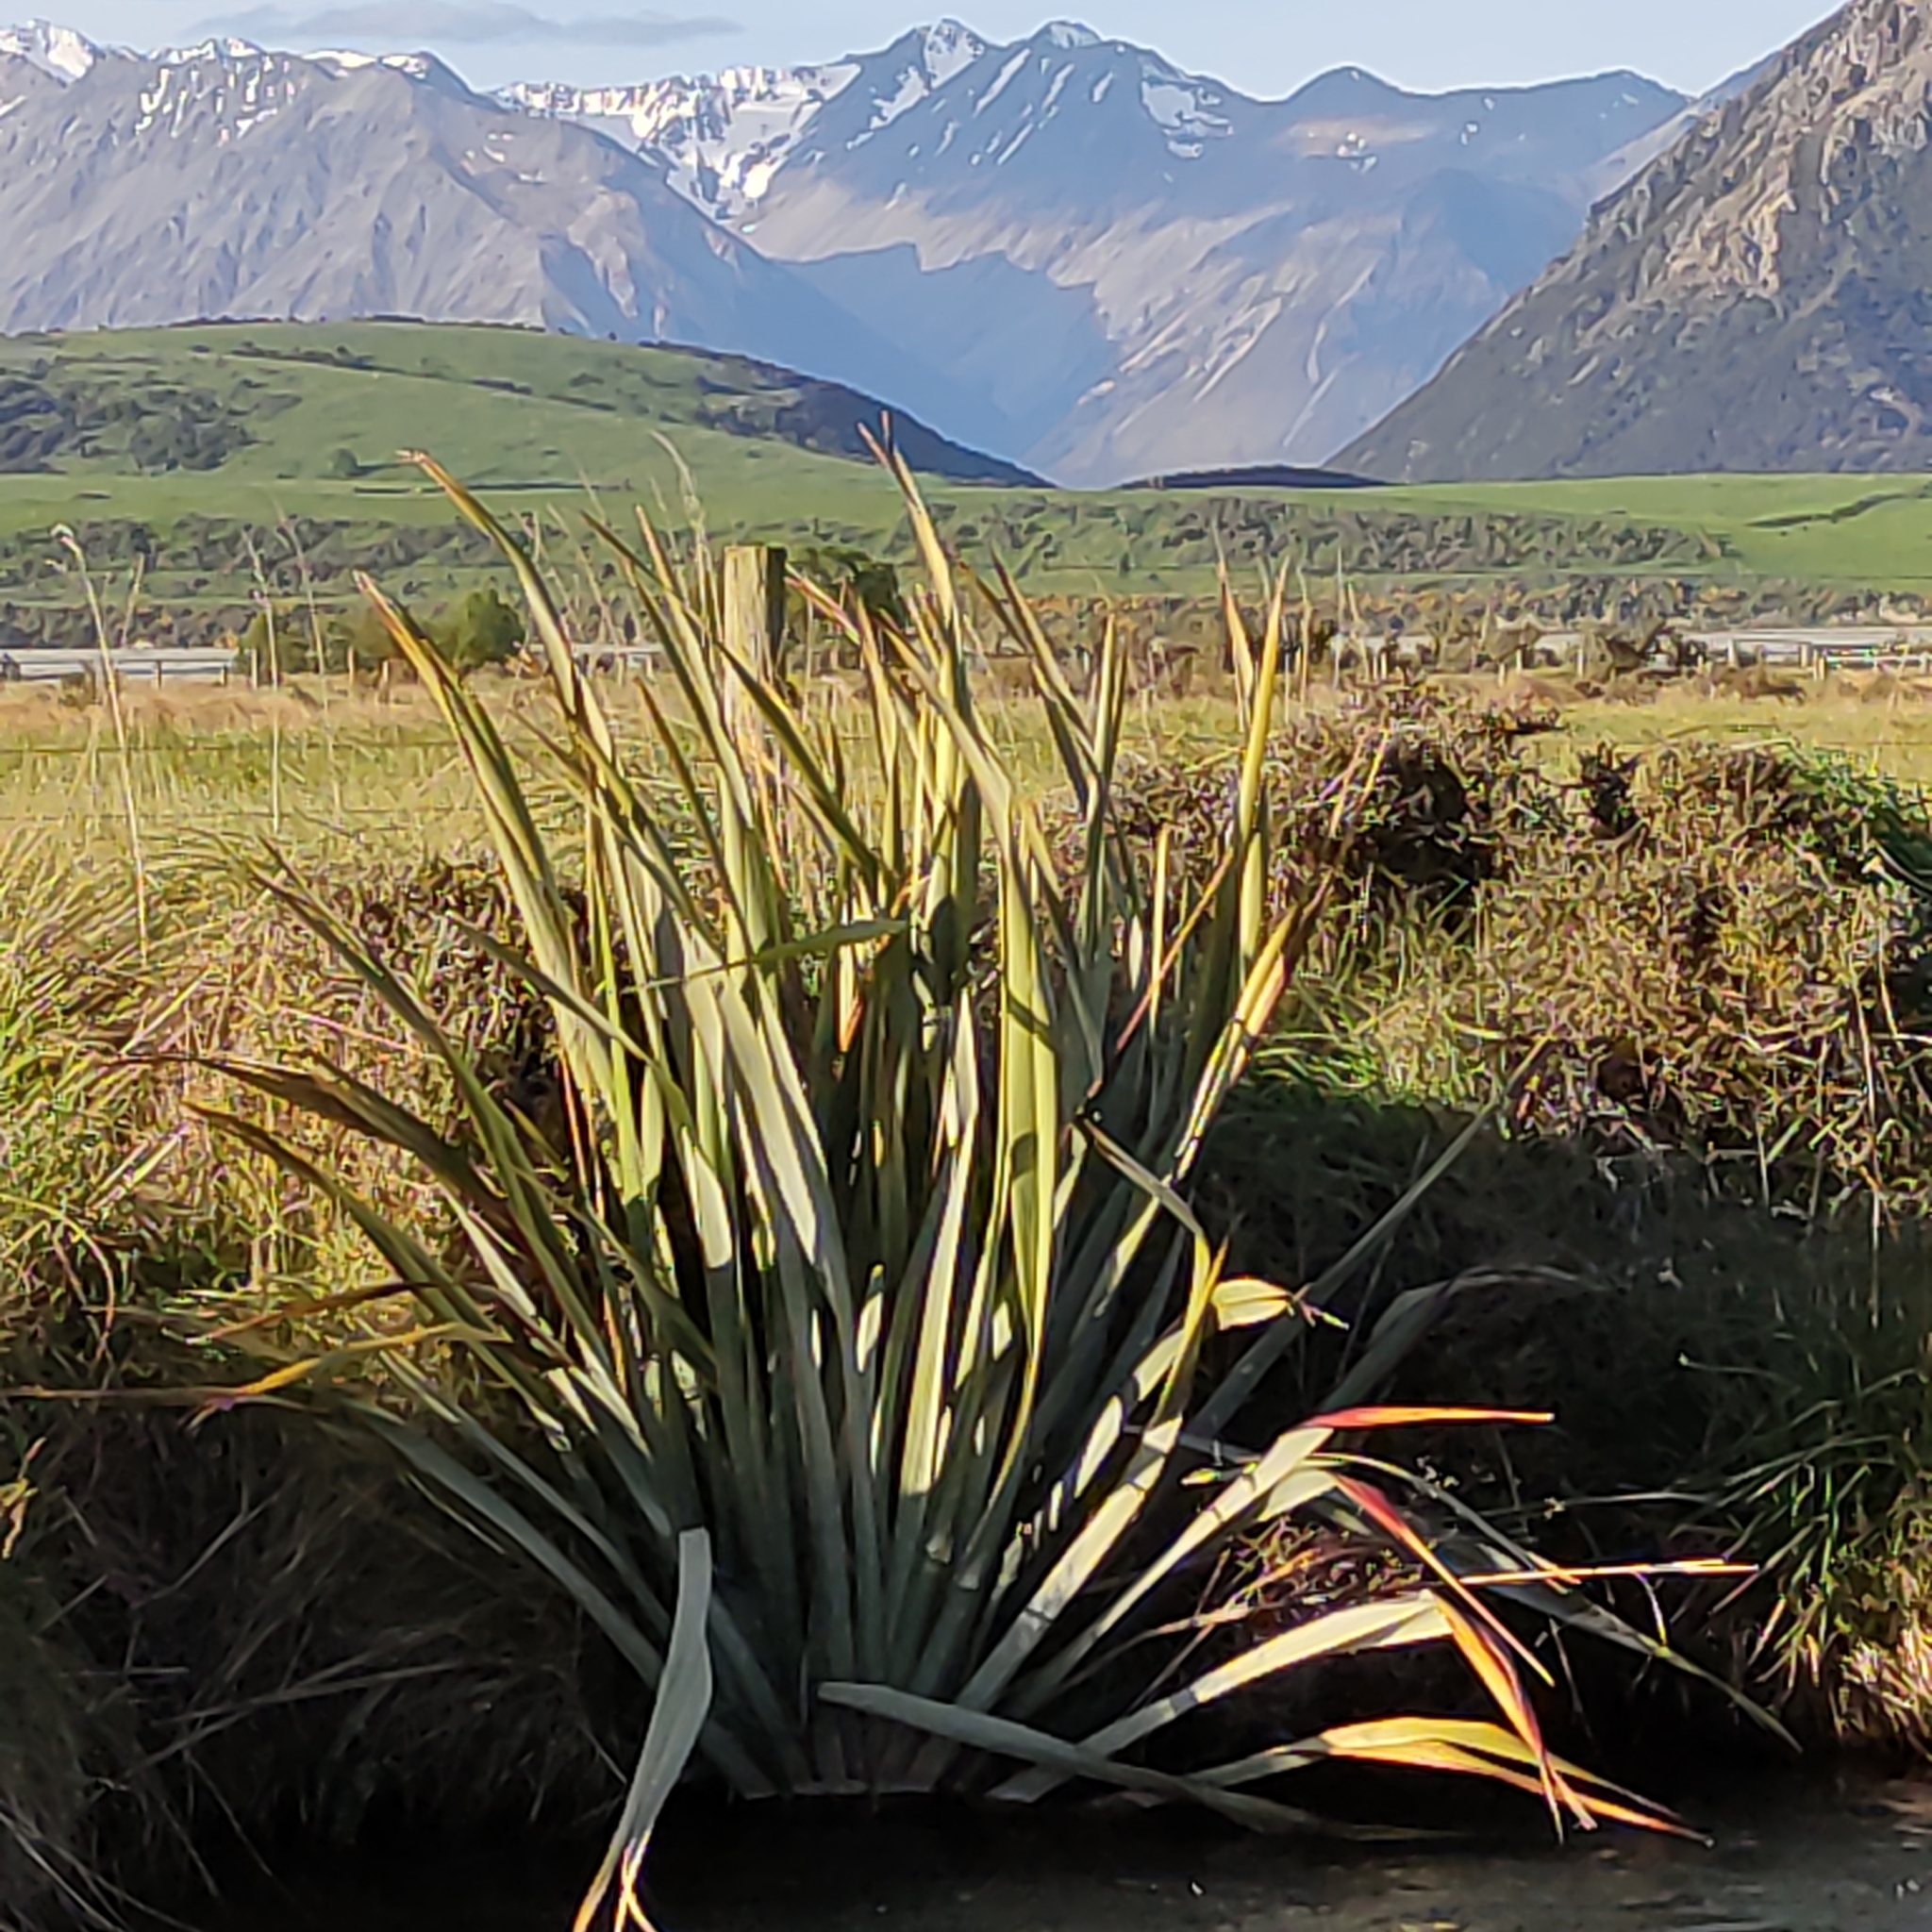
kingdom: Plantae
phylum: Tracheophyta
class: Liliopsida
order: Asparagales
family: Asphodelaceae
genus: Phormium
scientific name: Phormium tenax
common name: New zealand flax
